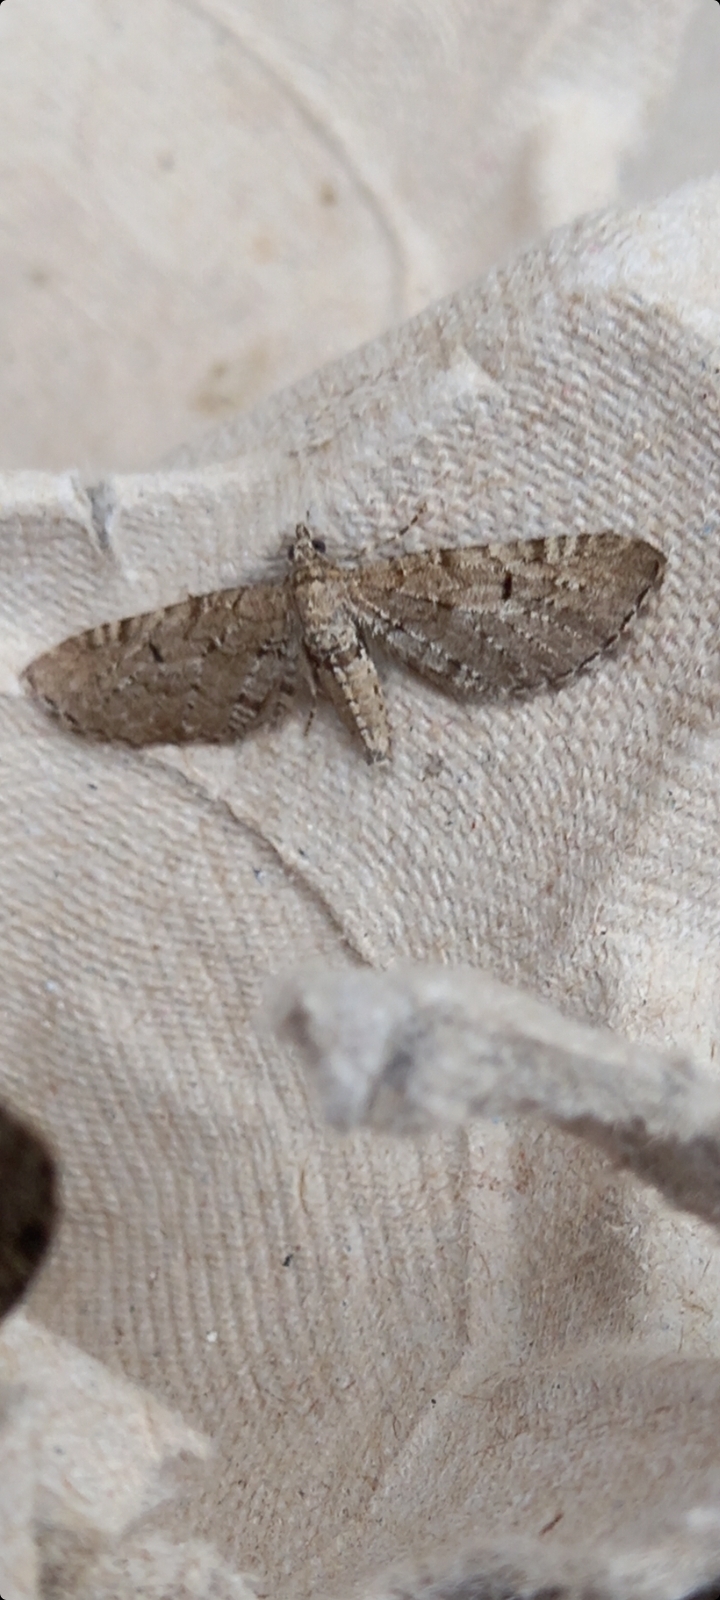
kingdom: Animalia
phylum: Arthropoda
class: Insecta
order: Lepidoptera
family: Geometridae
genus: Eupithecia
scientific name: Eupithecia absinthiata
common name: Wormwood pug
